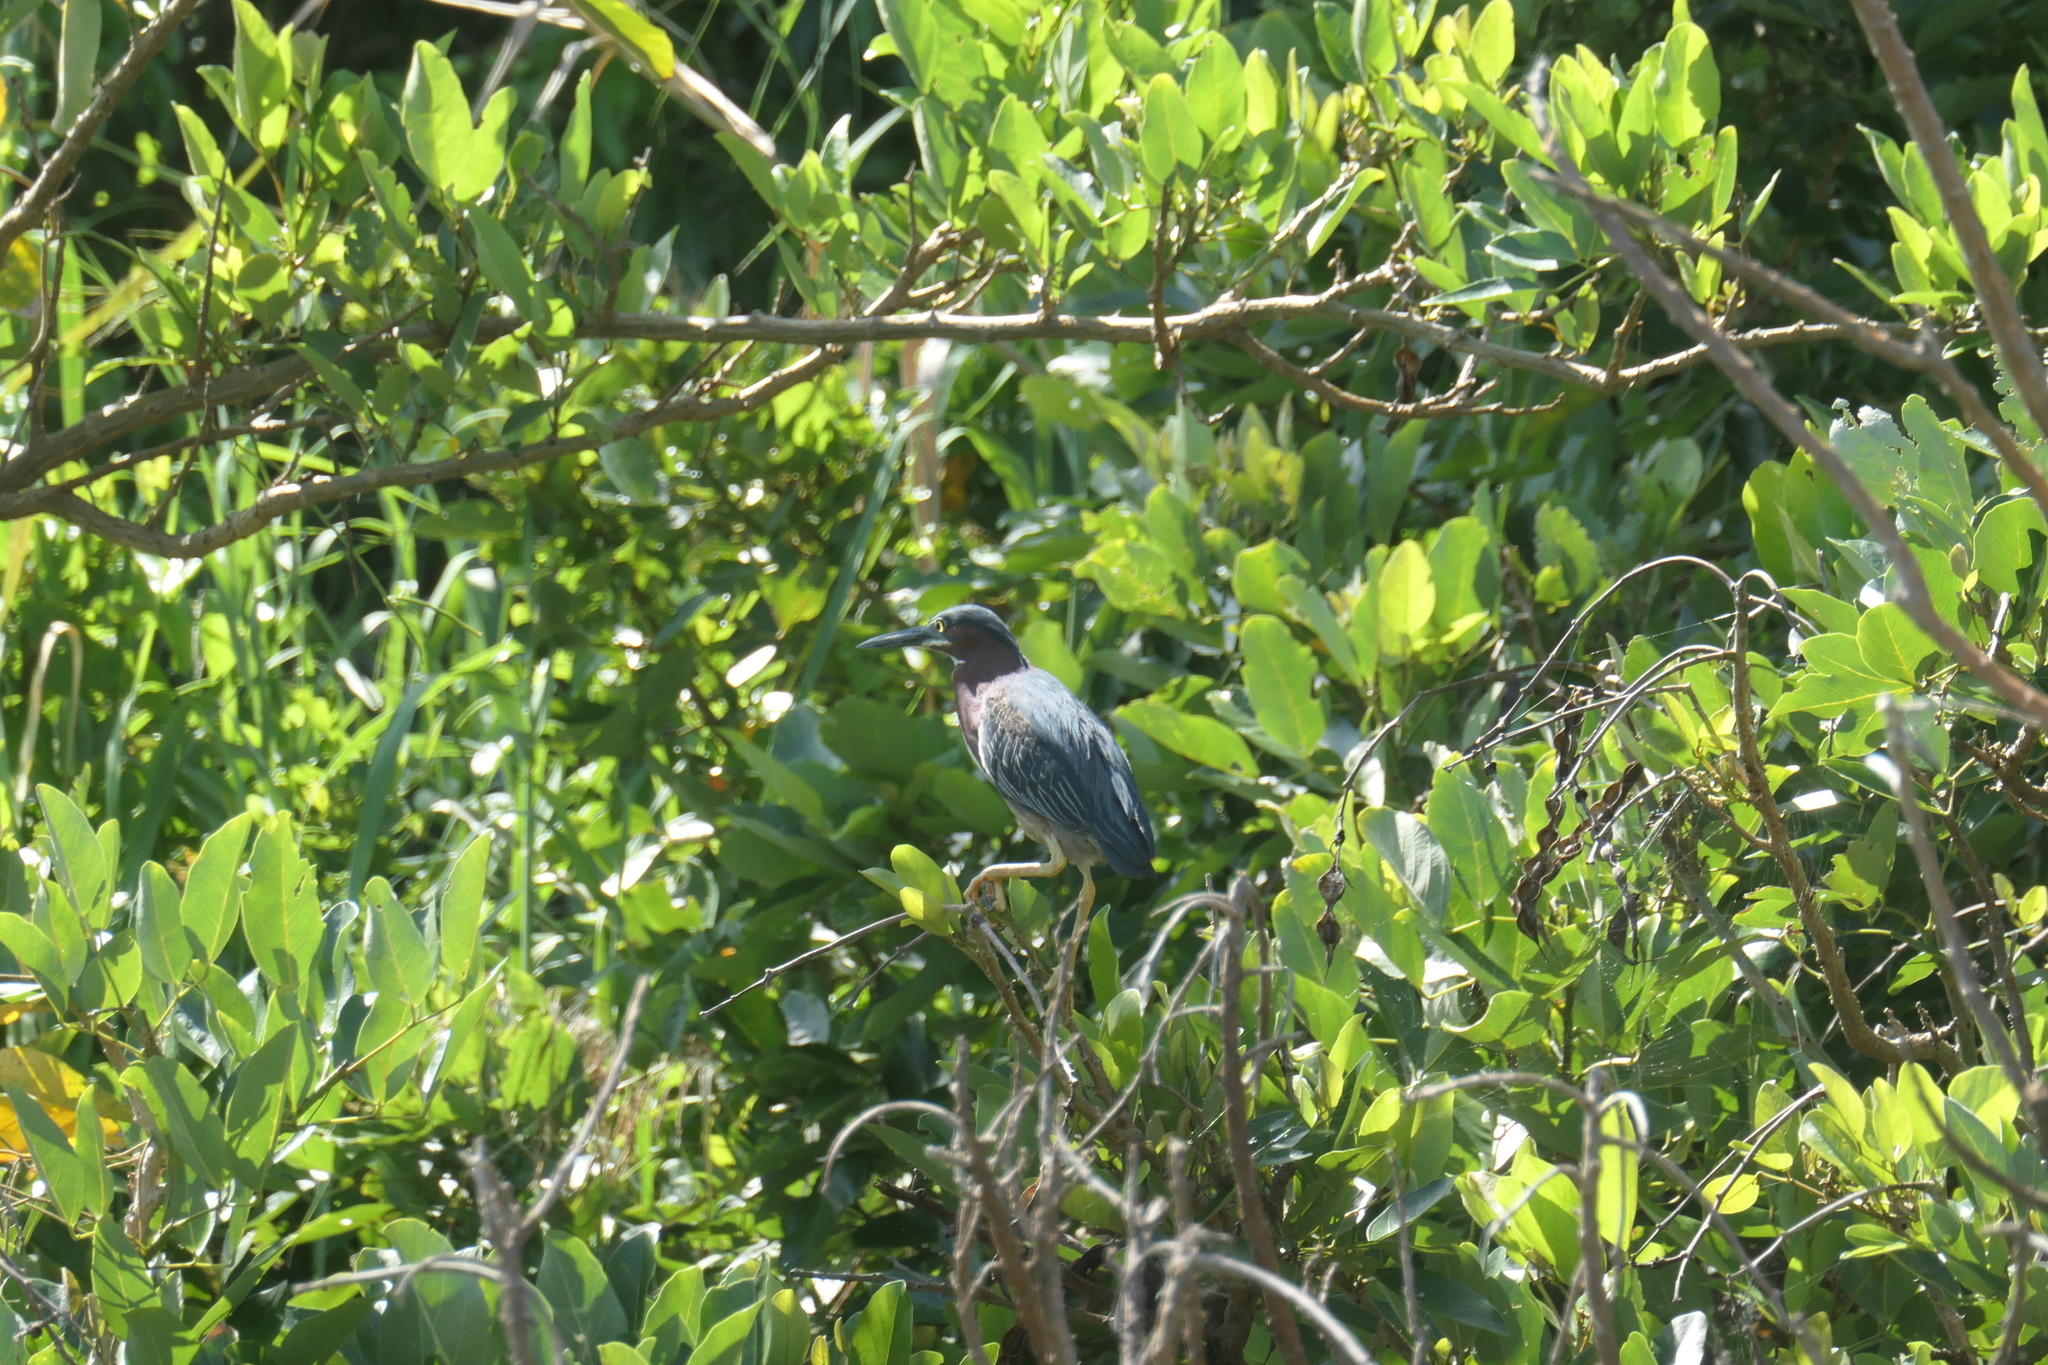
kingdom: Animalia
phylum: Chordata
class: Aves
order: Pelecaniformes
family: Ardeidae
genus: Butorides
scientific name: Butorides virescens
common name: Green heron
